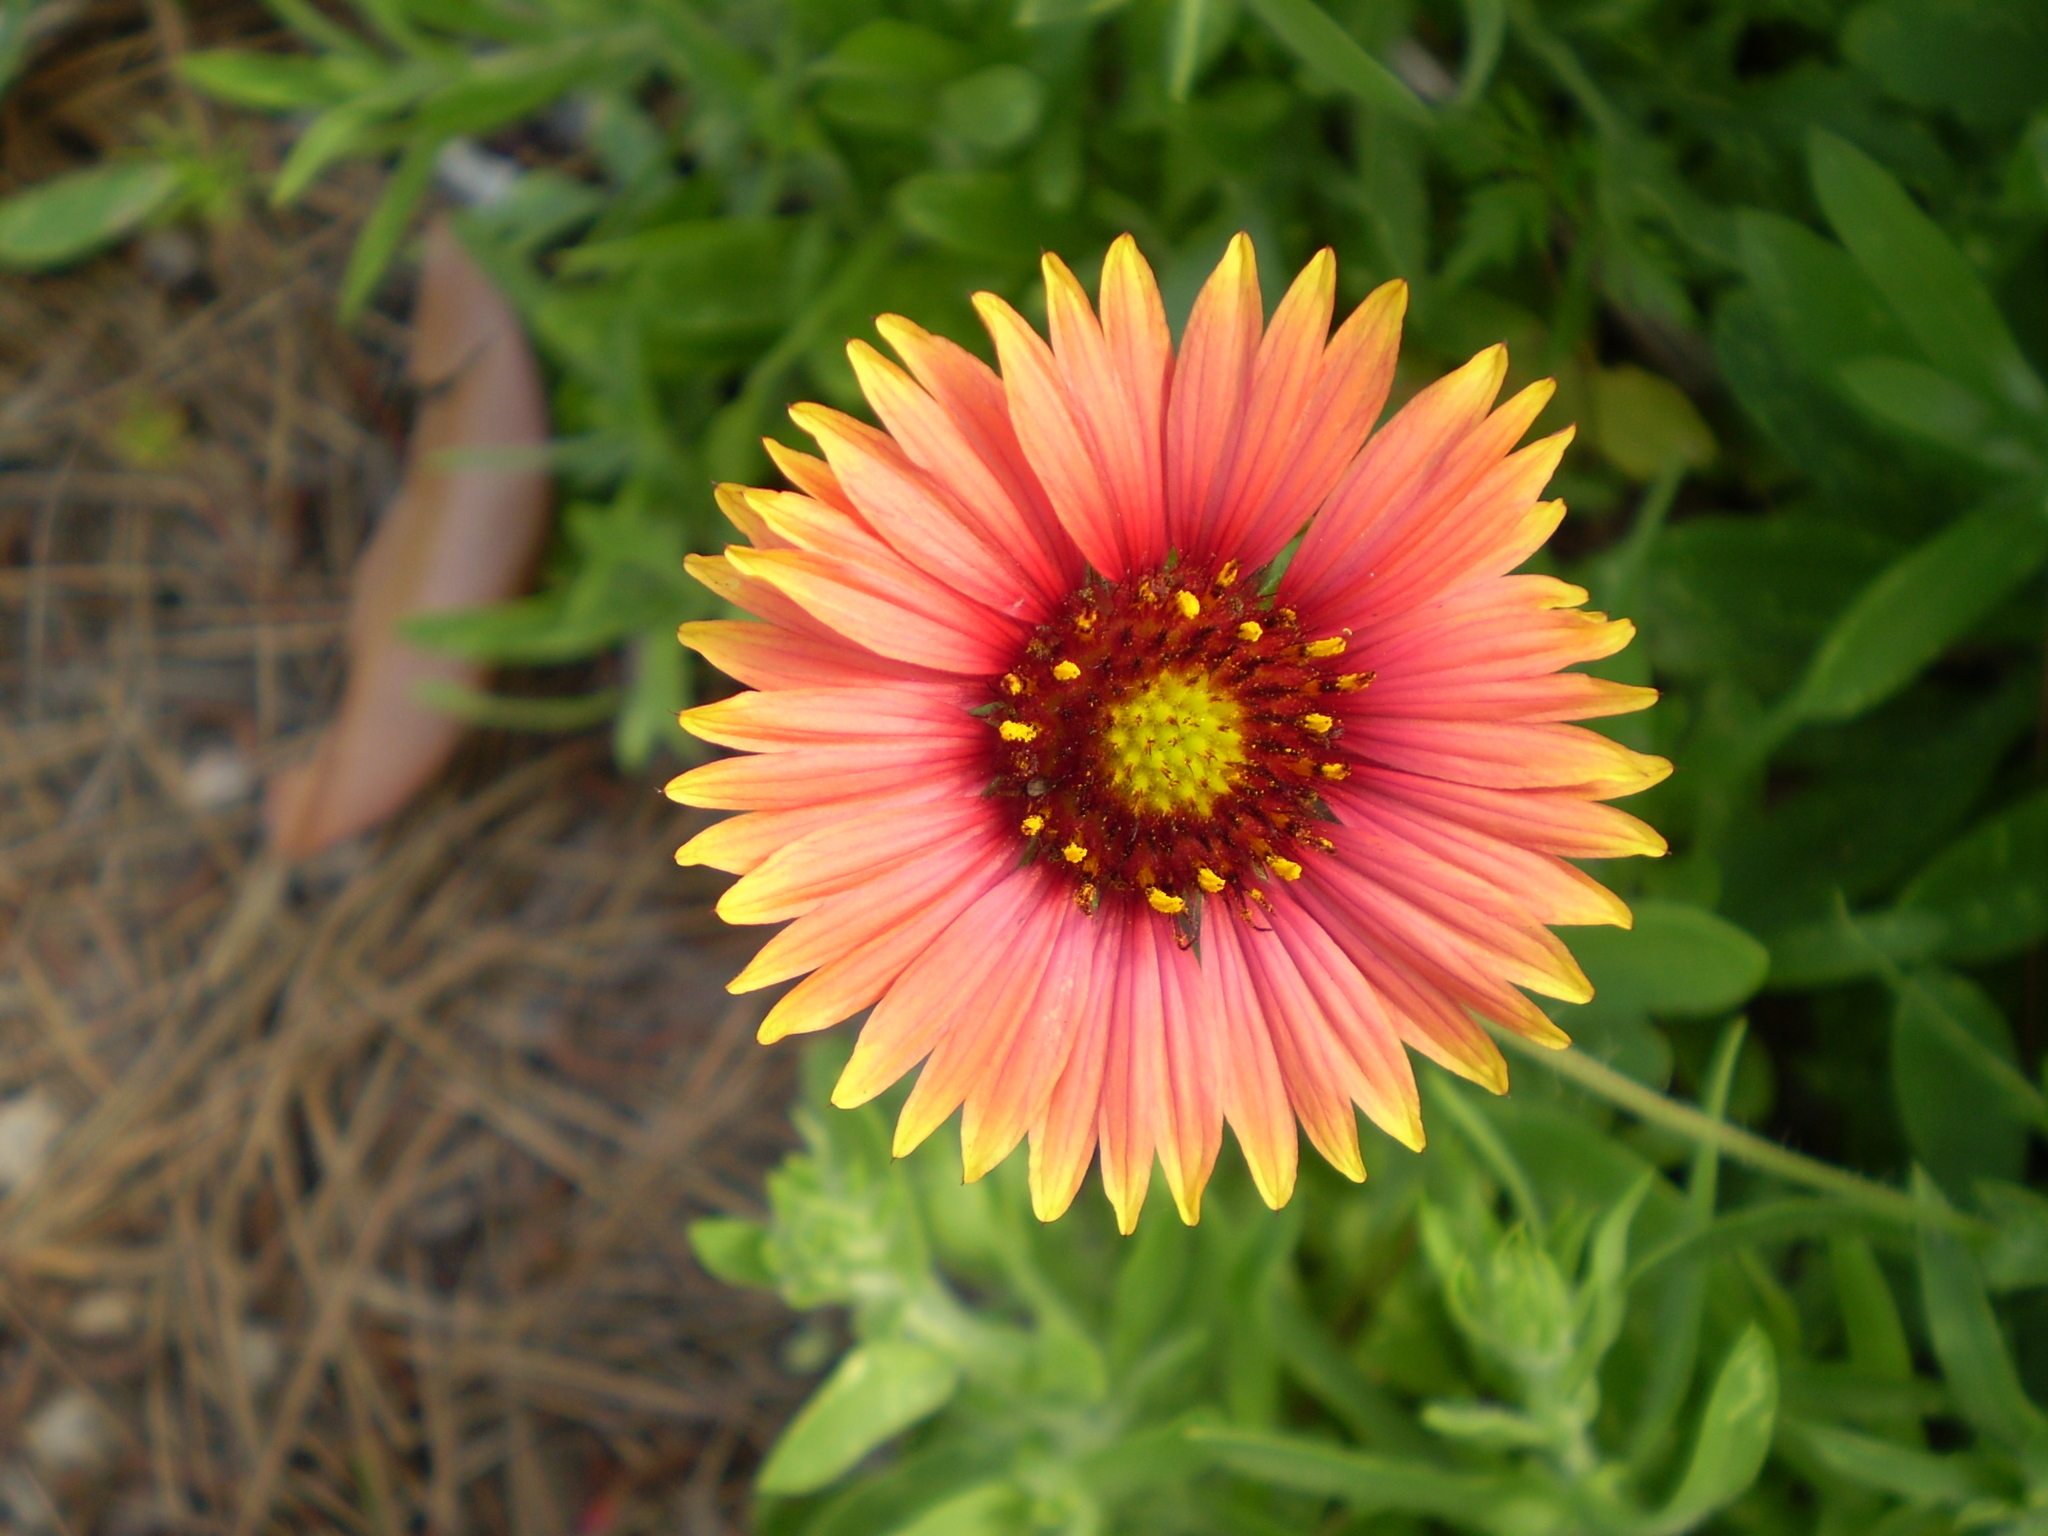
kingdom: Plantae
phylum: Tracheophyta
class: Magnoliopsida
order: Asterales
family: Asteraceae
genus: Gaillardia
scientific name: Gaillardia pulchella
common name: Firewheel
